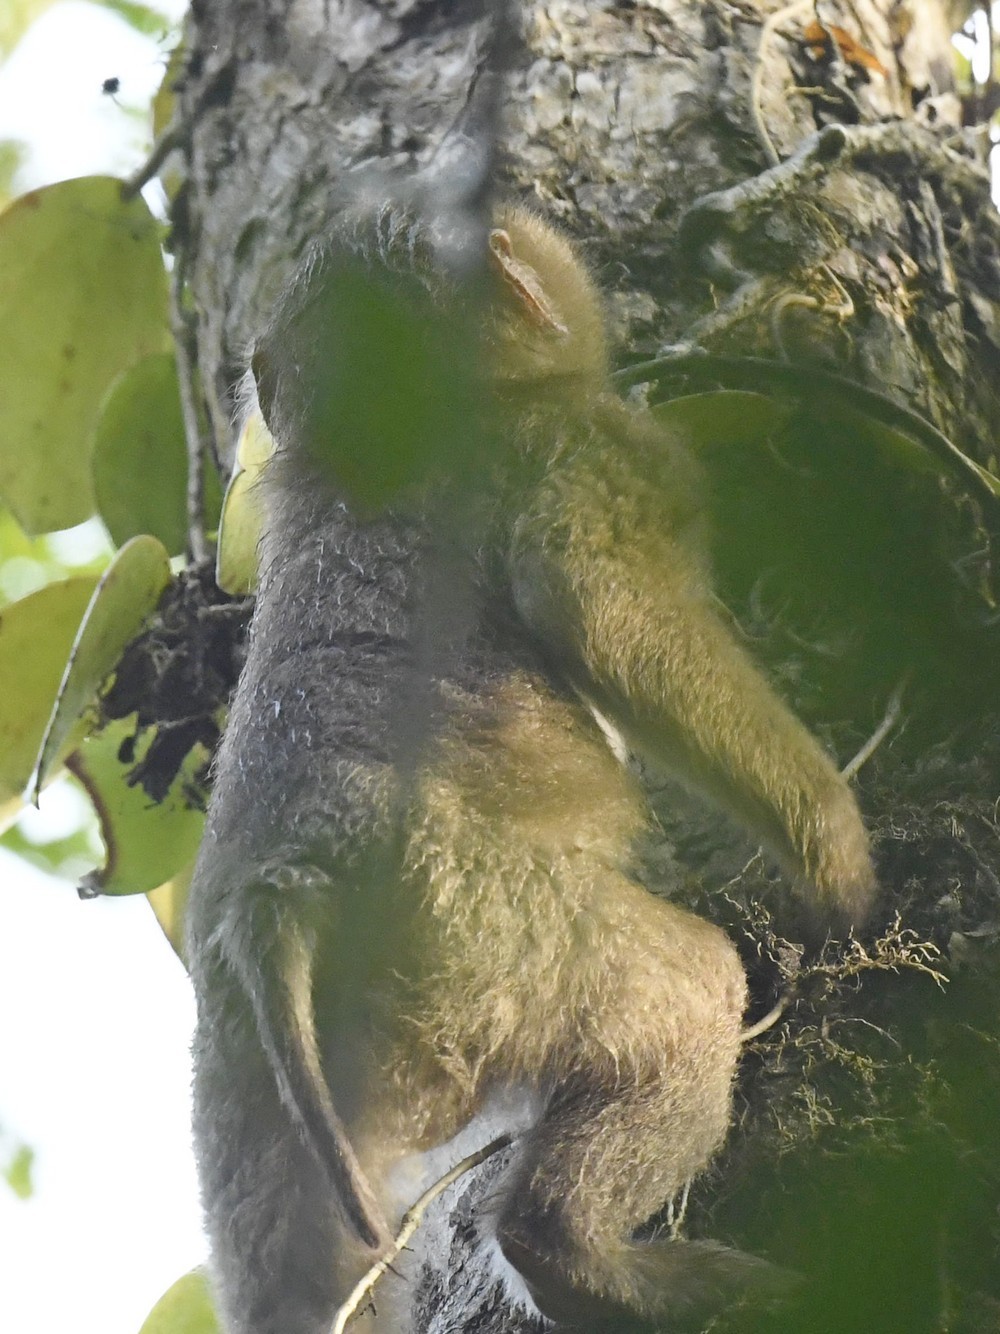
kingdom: Animalia
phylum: Chordata
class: Mammalia
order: Primates
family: Cercopithecidae
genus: Macaca
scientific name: Macaca leonina
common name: Northern pig-tailed macaque
